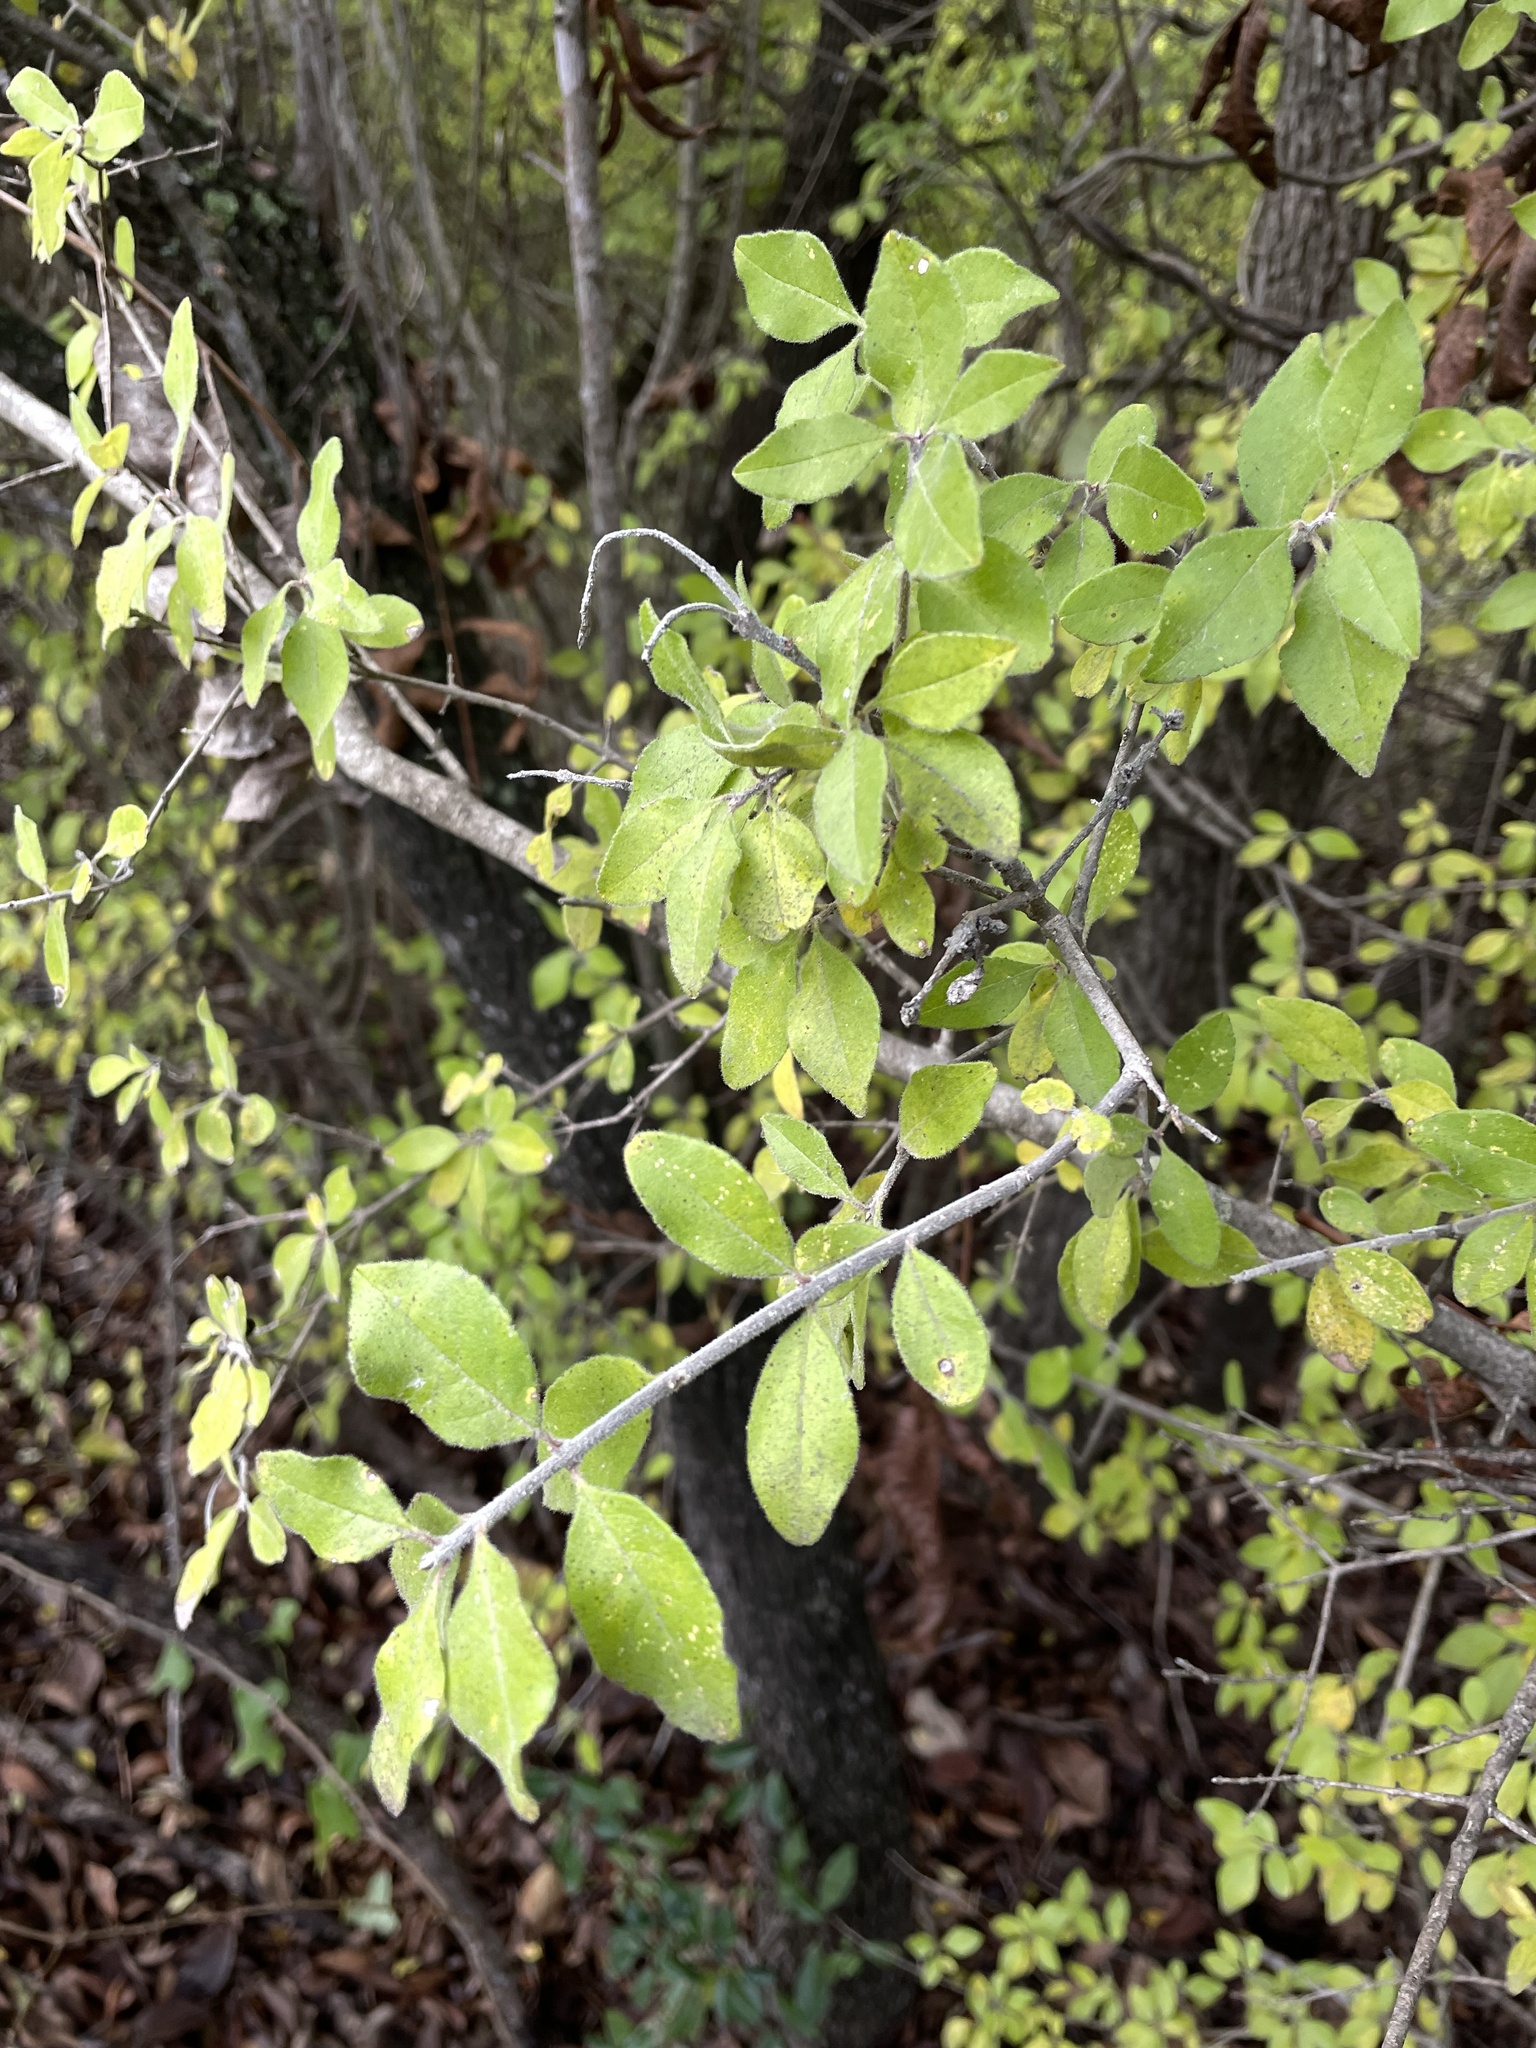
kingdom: Plantae
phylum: Tracheophyta
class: Magnoliopsida
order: Lamiales
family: Oleaceae
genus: Forestiera
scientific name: Forestiera pubescens
